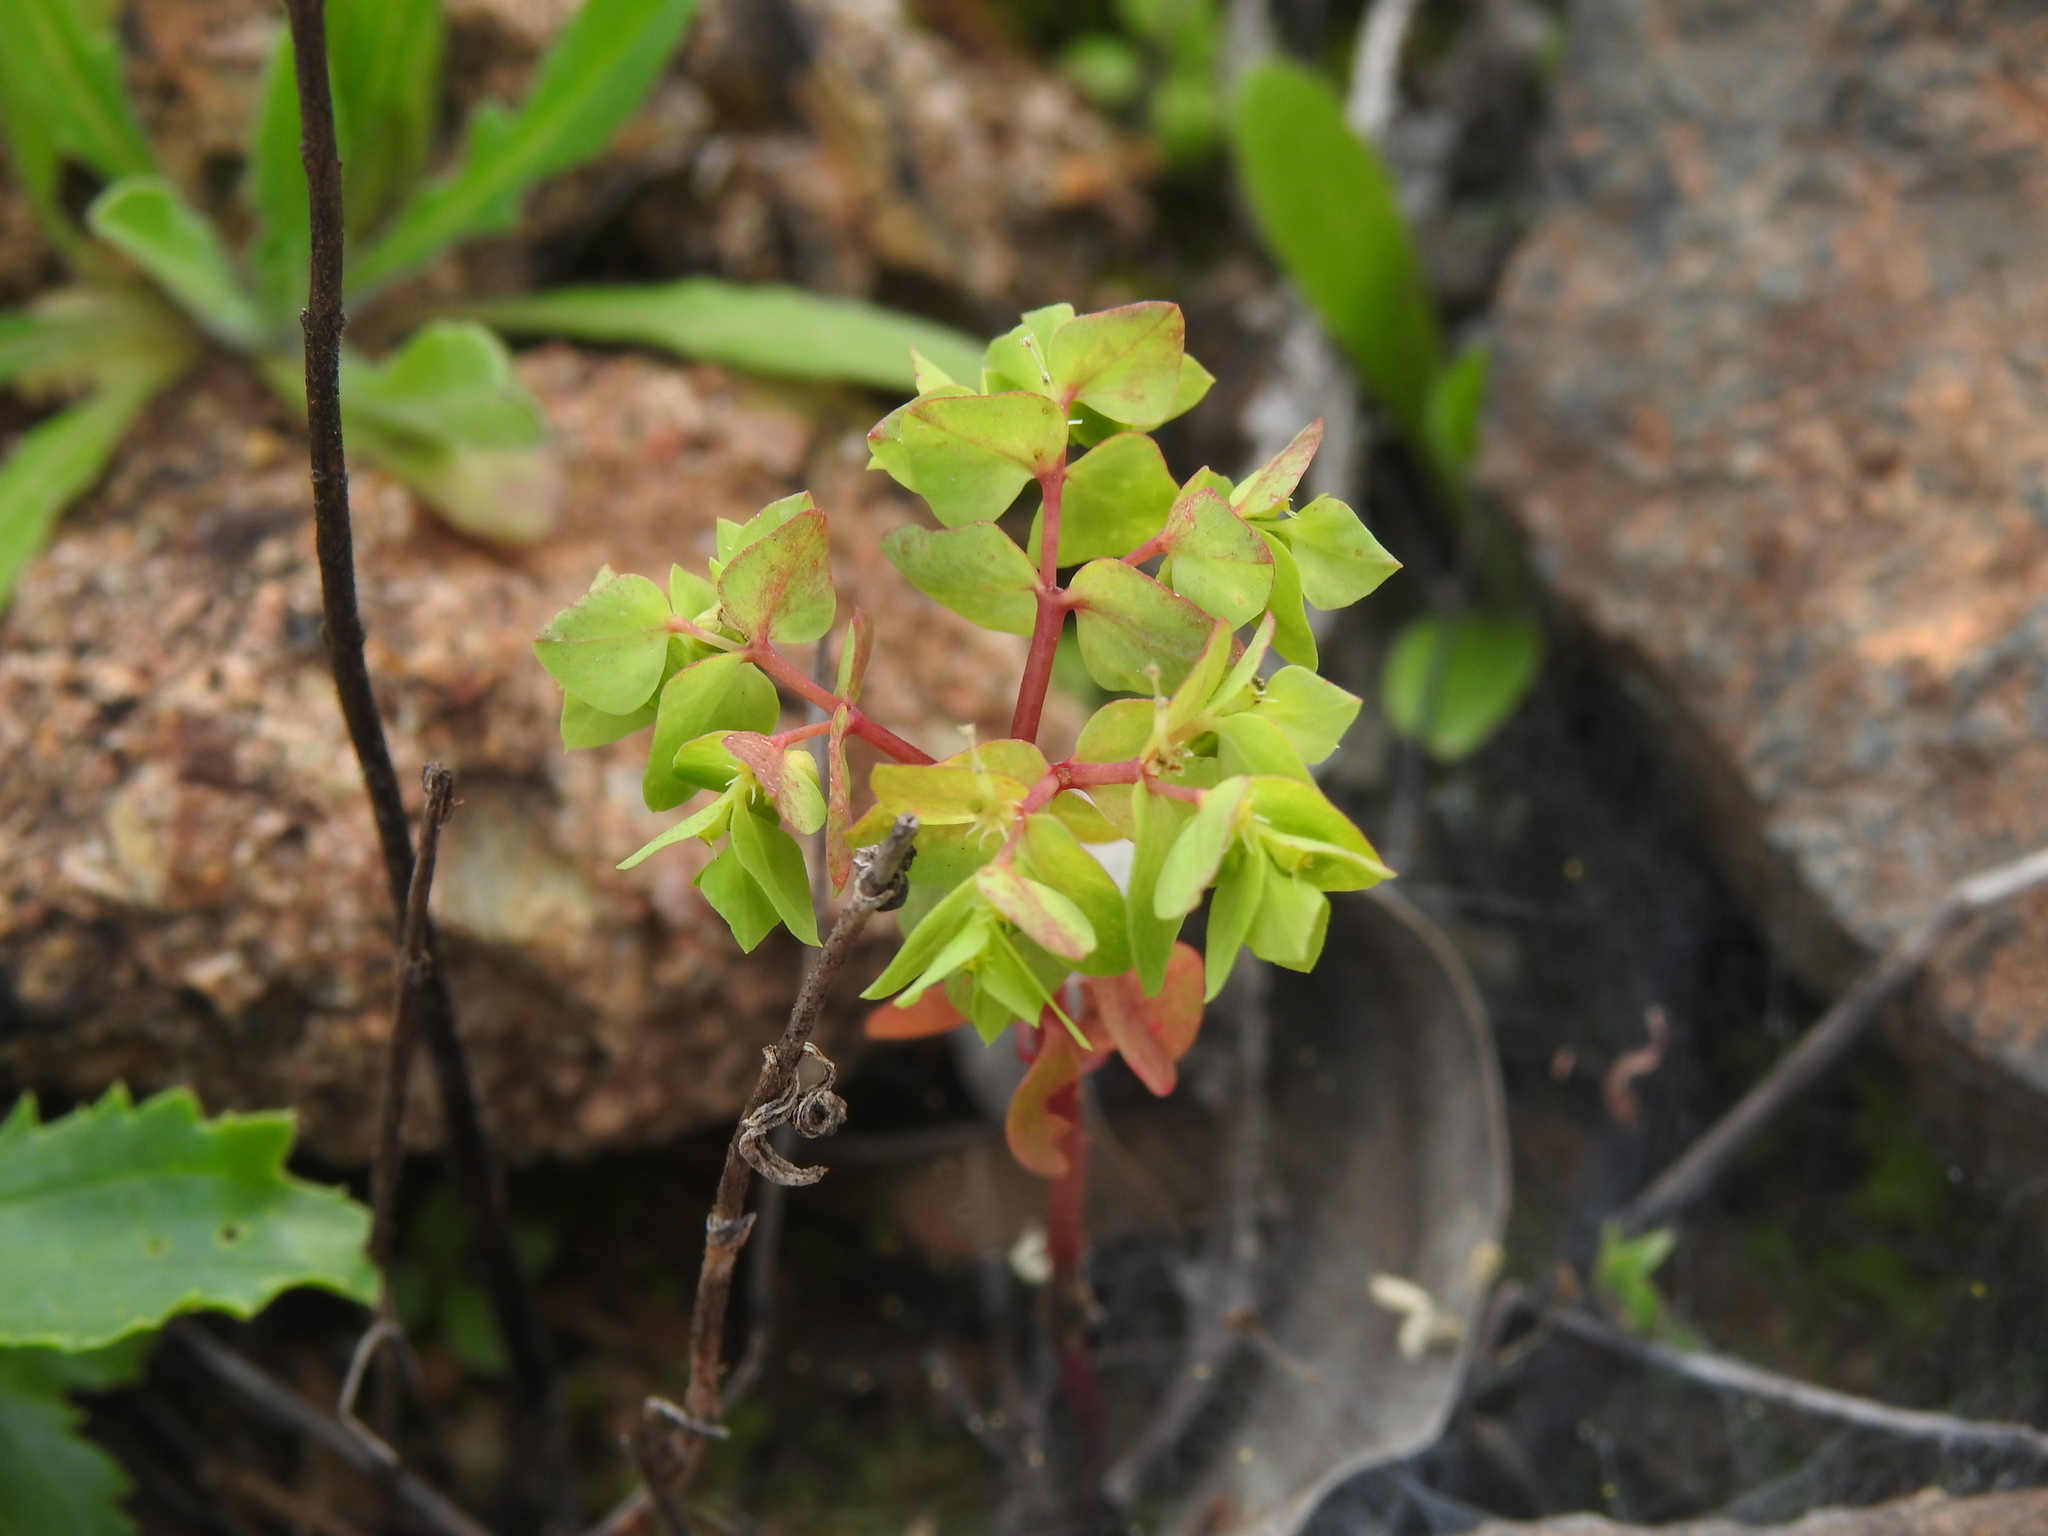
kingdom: Plantae
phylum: Tracheophyta
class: Magnoliopsida
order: Malpighiales
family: Euphorbiaceae
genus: Euphorbia
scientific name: Euphorbia peplus
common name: Petty spurge
